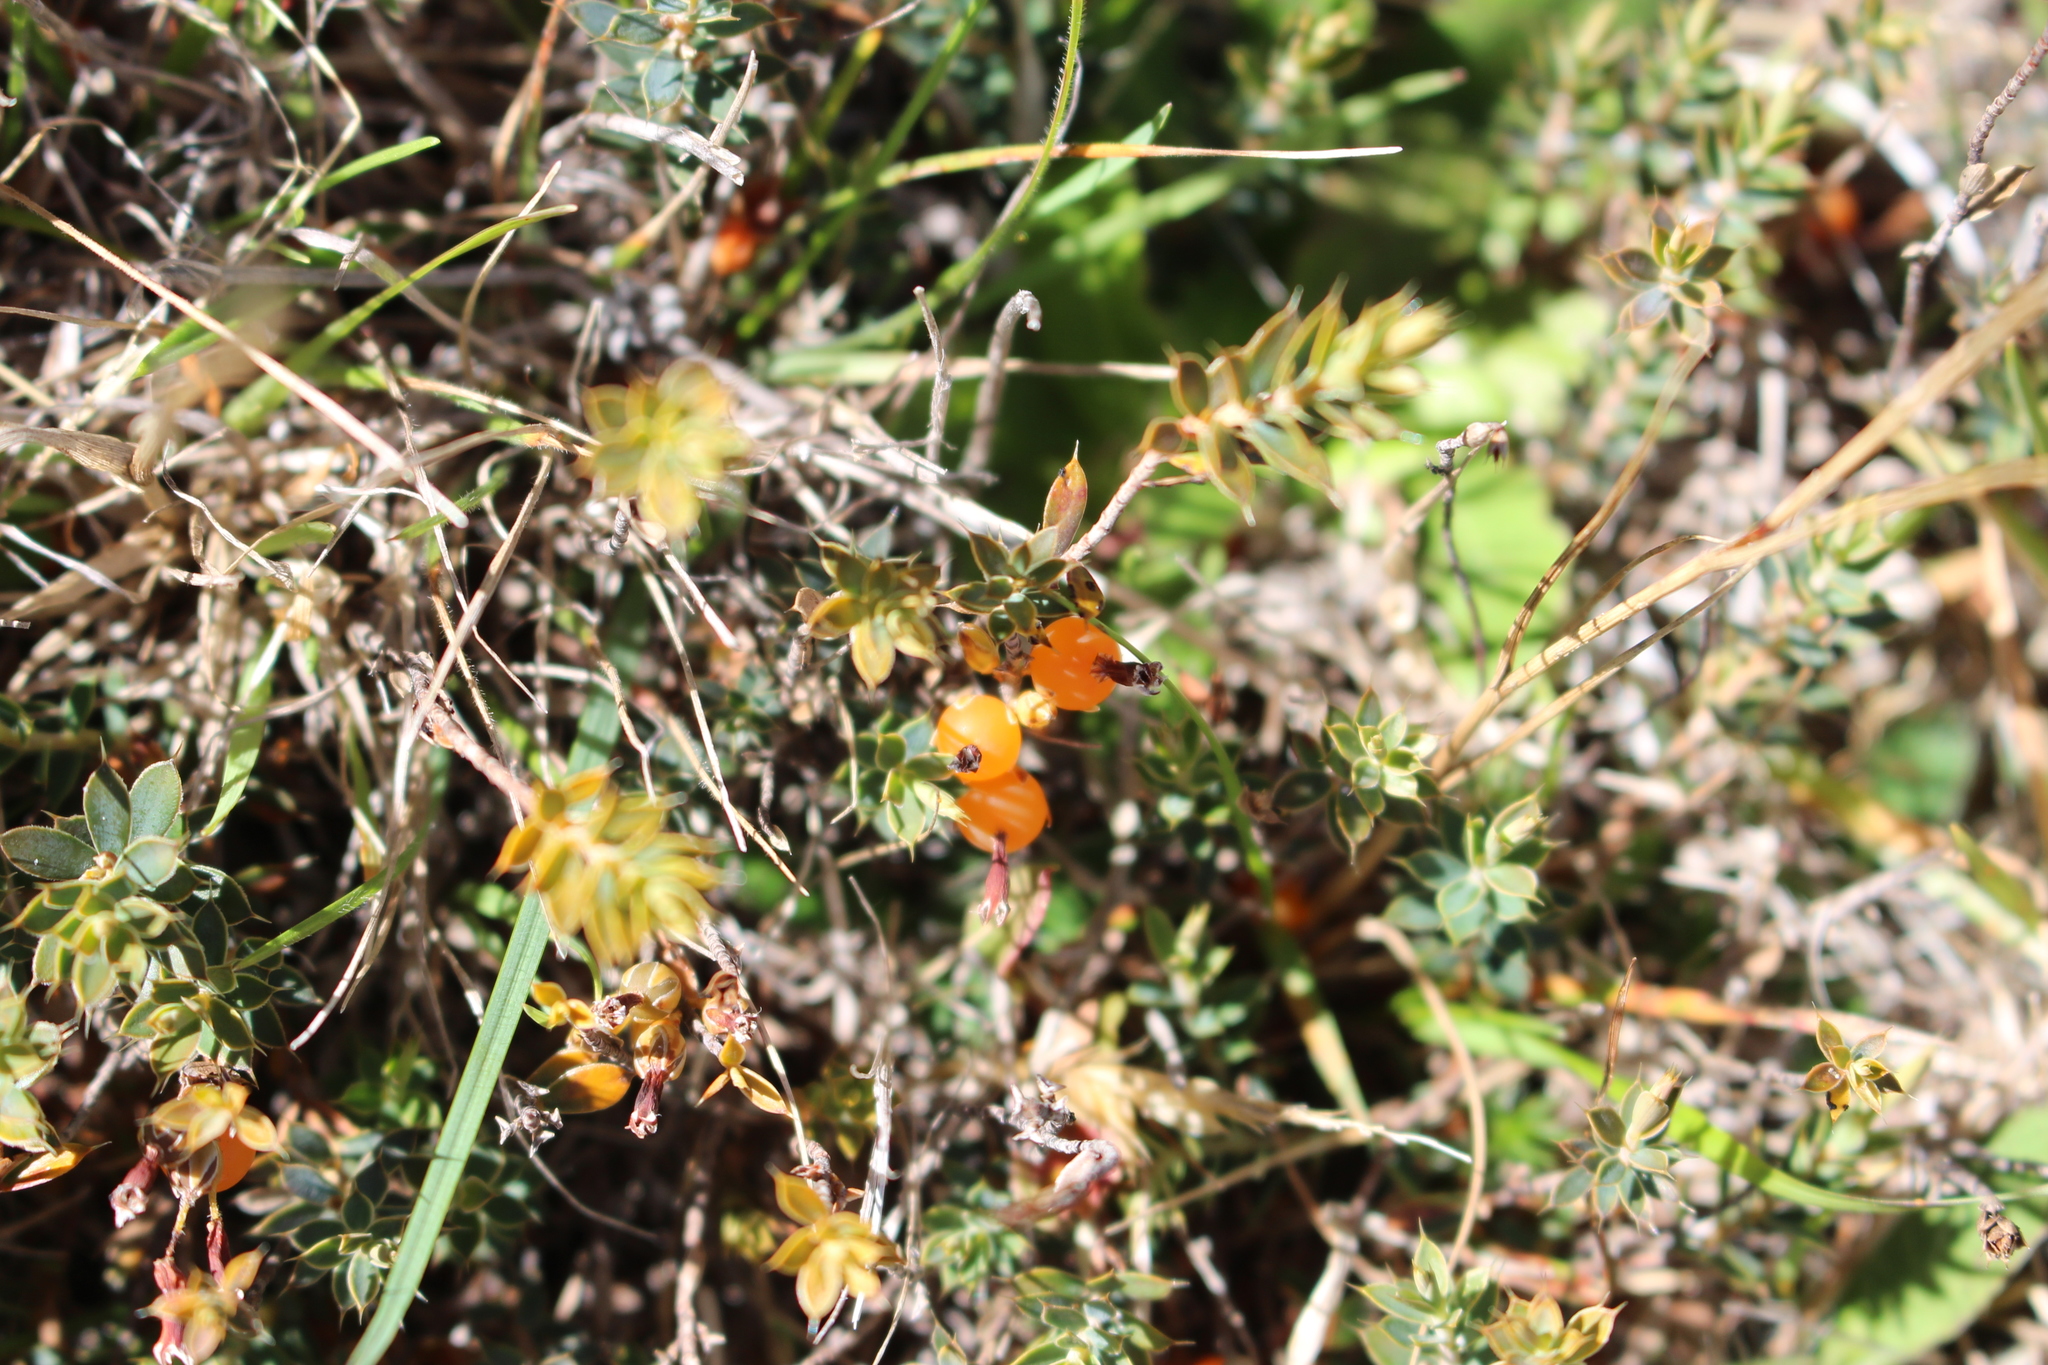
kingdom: Plantae
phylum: Tracheophyta
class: Magnoliopsida
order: Ericales
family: Ericaceae
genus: Styphelia
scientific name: Styphelia nesophila
